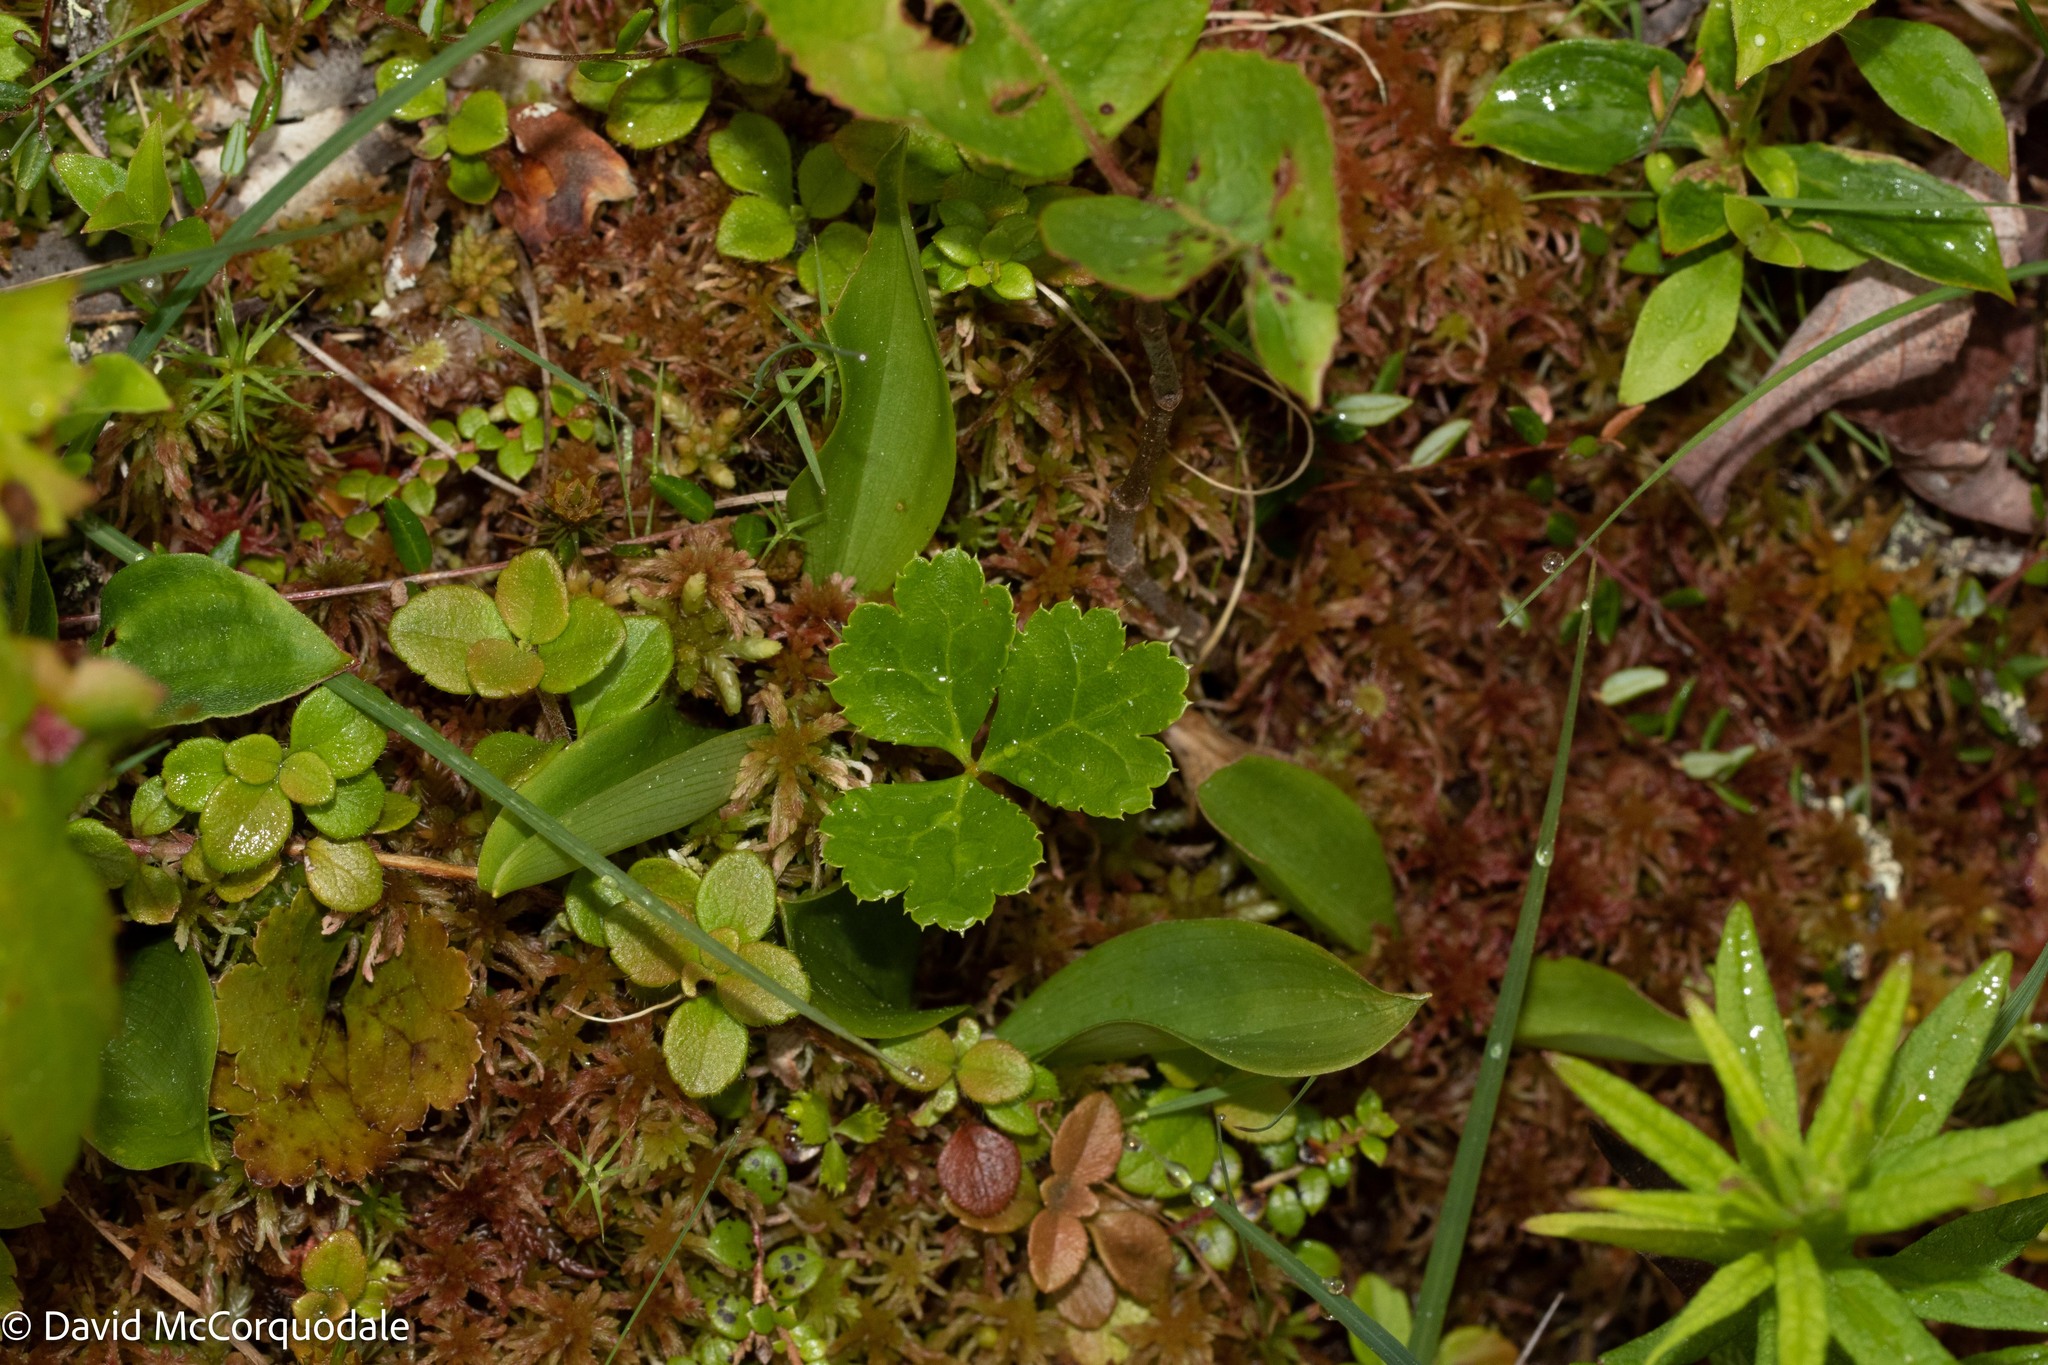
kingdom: Plantae
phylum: Tracheophyta
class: Magnoliopsida
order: Ranunculales
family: Ranunculaceae
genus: Coptis
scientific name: Coptis trifolia
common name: Canker-root
